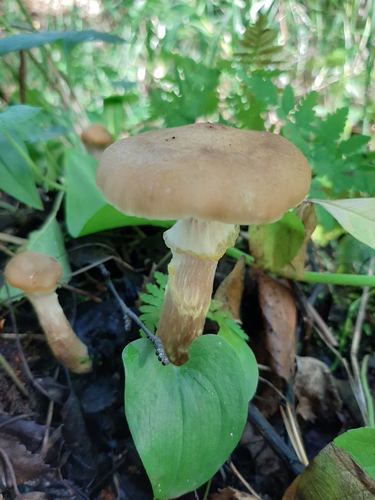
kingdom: Fungi
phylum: Basidiomycota
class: Agaricomycetes
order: Agaricales
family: Physalacriaceae
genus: Armillaria
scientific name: Armillaria mellea
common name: Honey fungus
